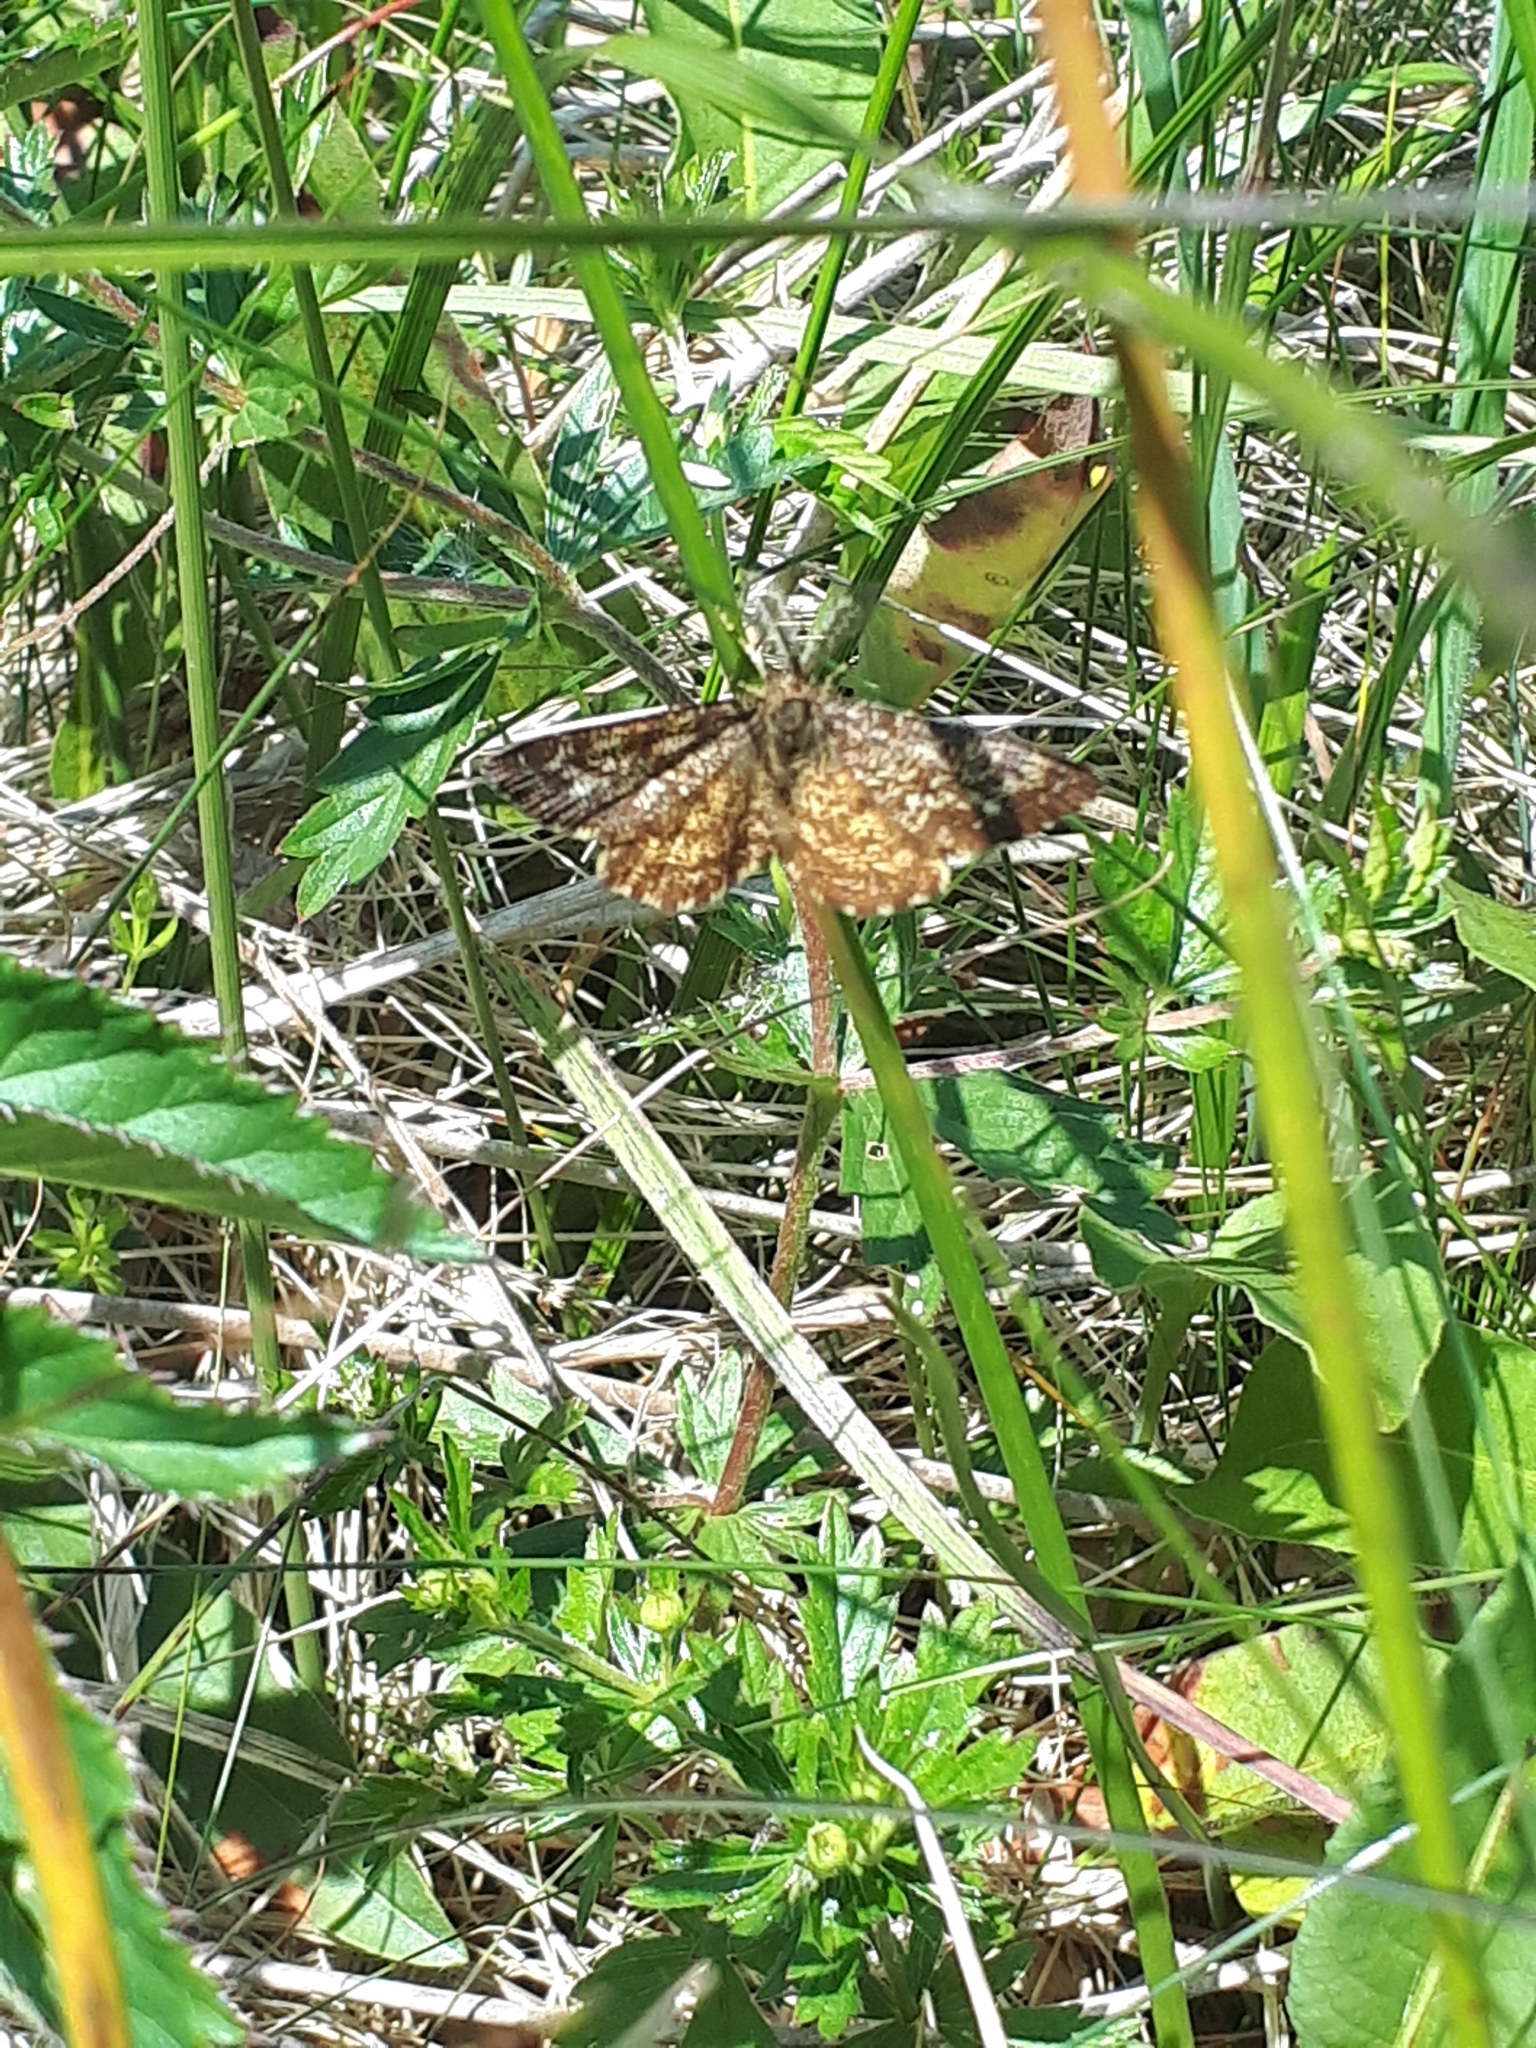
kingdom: Animalia
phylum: Arthropoda
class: Insecta
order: Lepidoptera
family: Geometridae
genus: Ematurga
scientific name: Ematurga atomaria
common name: Common heath
